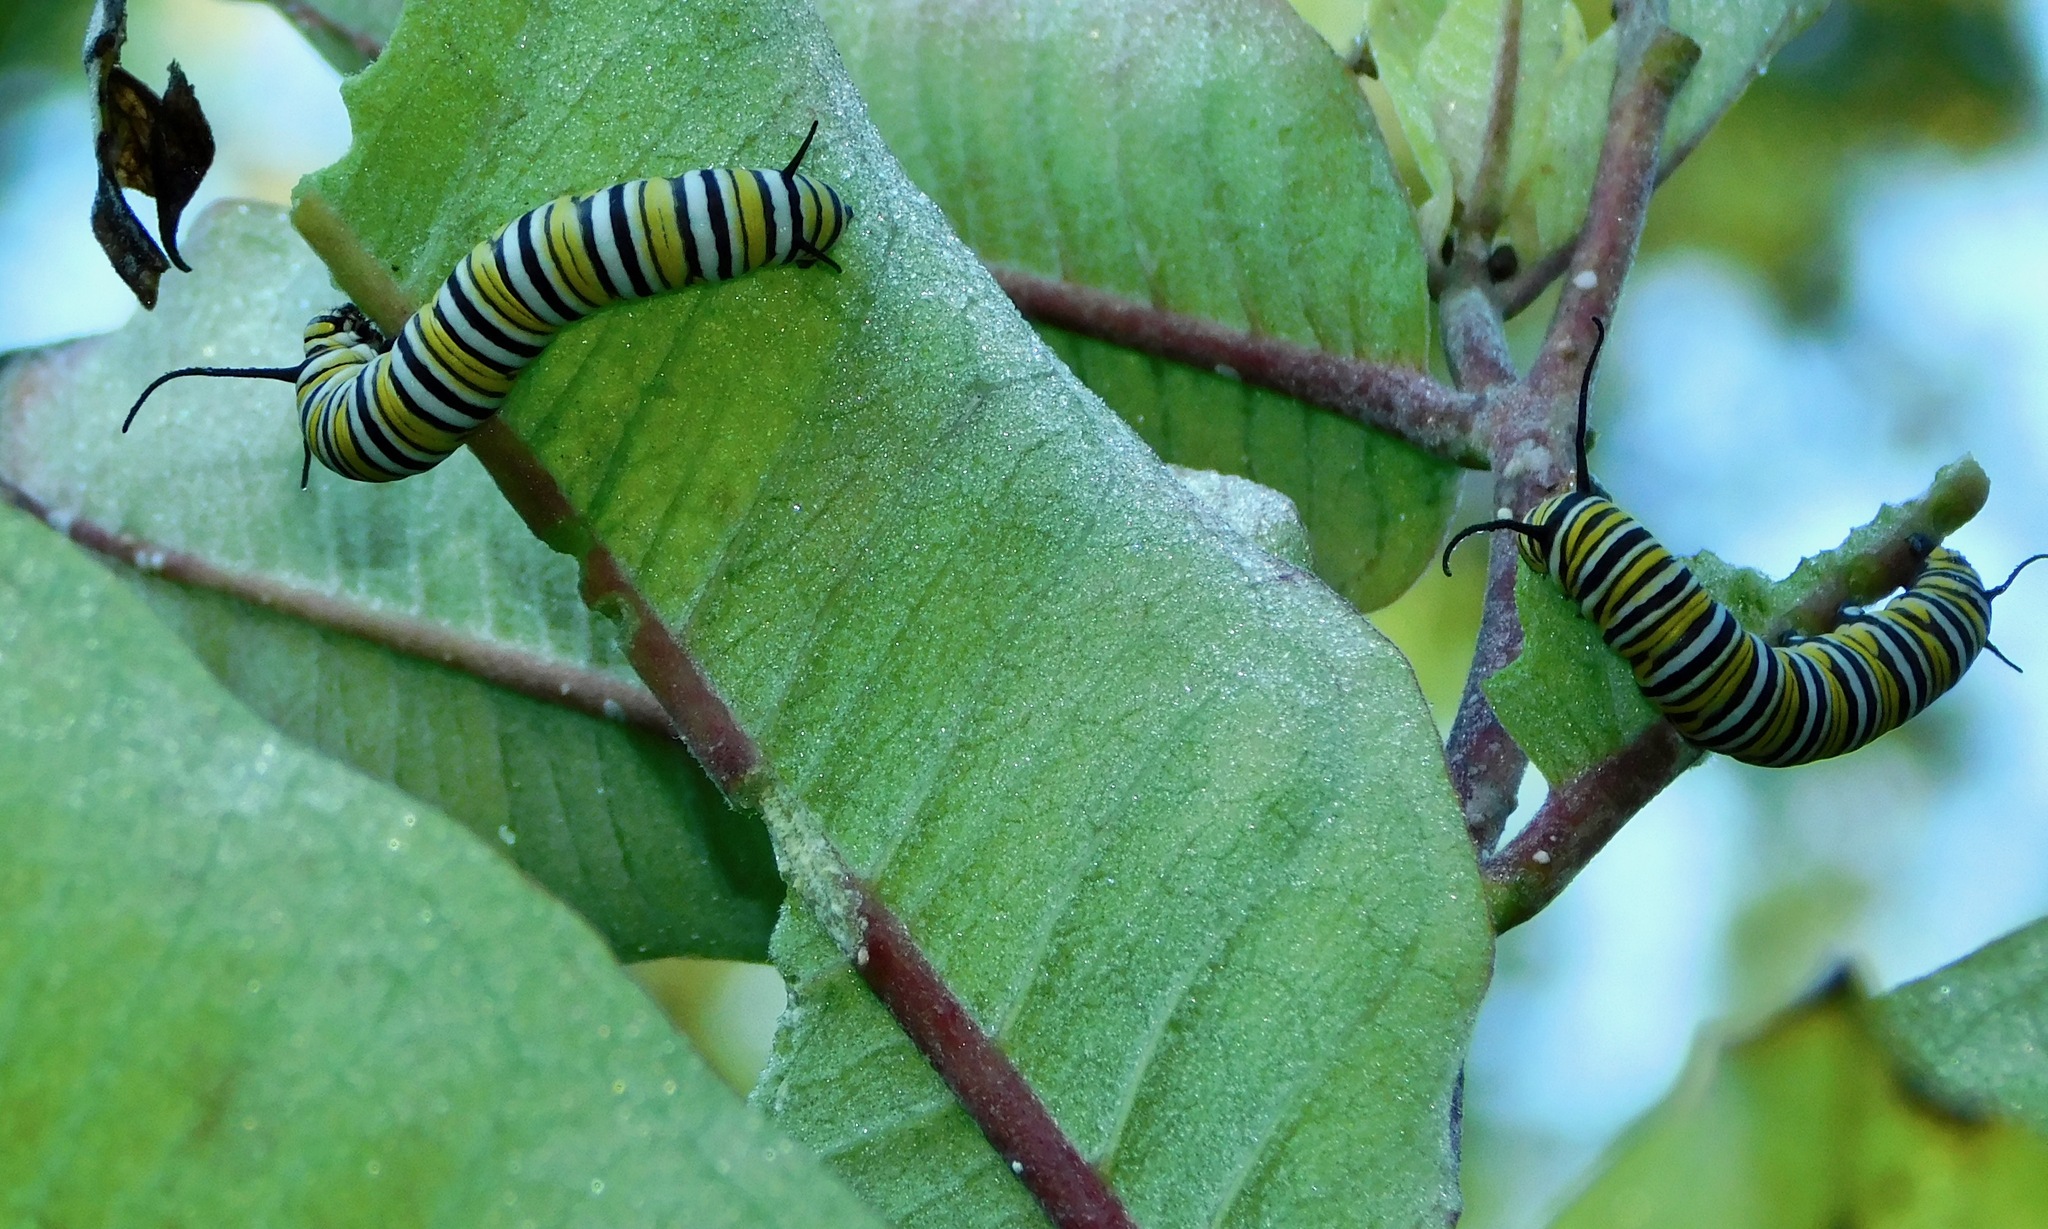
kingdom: Animalia
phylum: Arthropoda
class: Insecta
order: Lepidoptera
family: Nymphalidae
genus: Danaus
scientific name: Danaus plexippus
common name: Monarch
